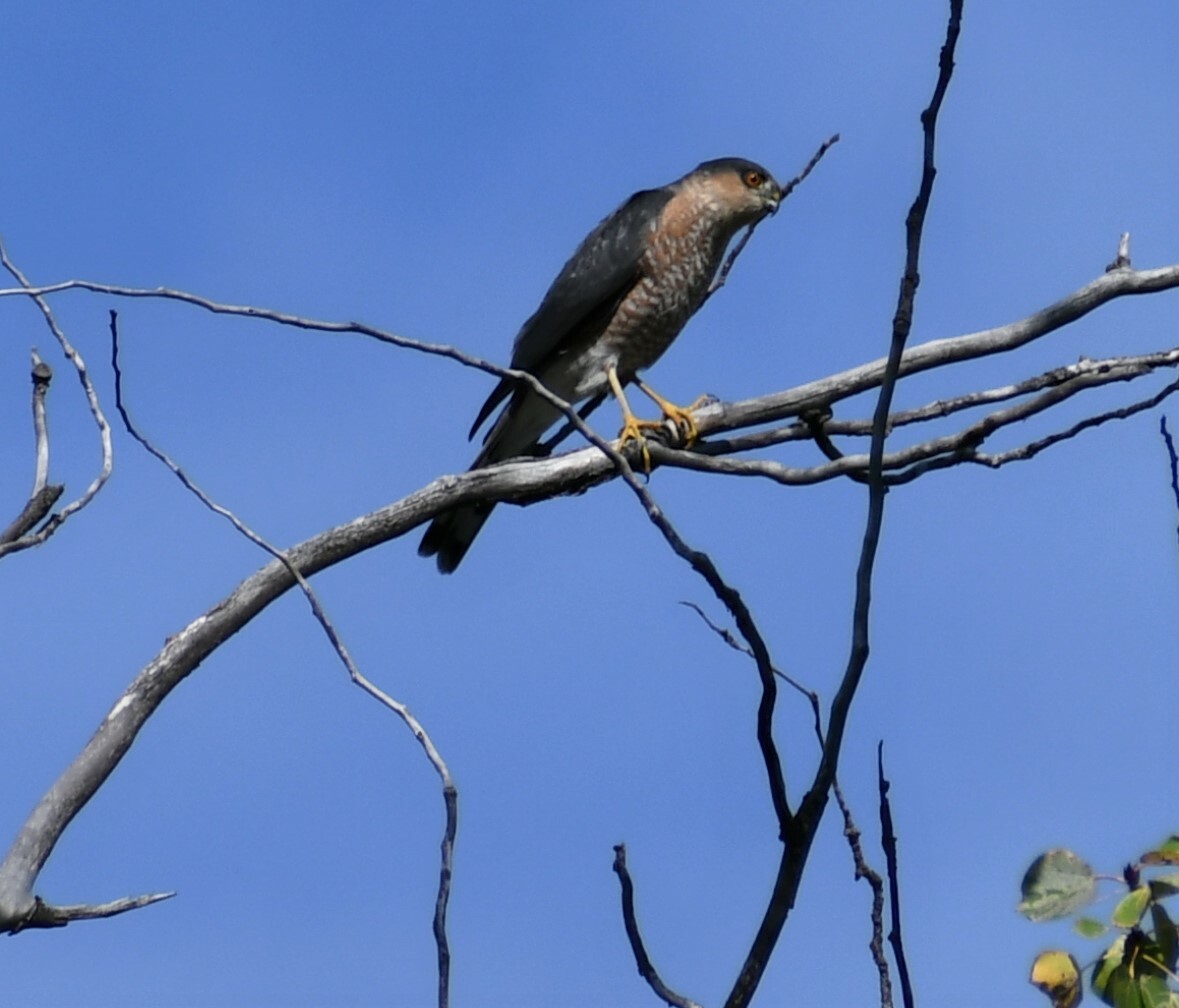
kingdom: Animalia
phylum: Chordata
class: Aves
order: Accipitriformes
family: Accipitridae
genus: Accipiter
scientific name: Accipiter striatus
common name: Sharp-shinned hawk
